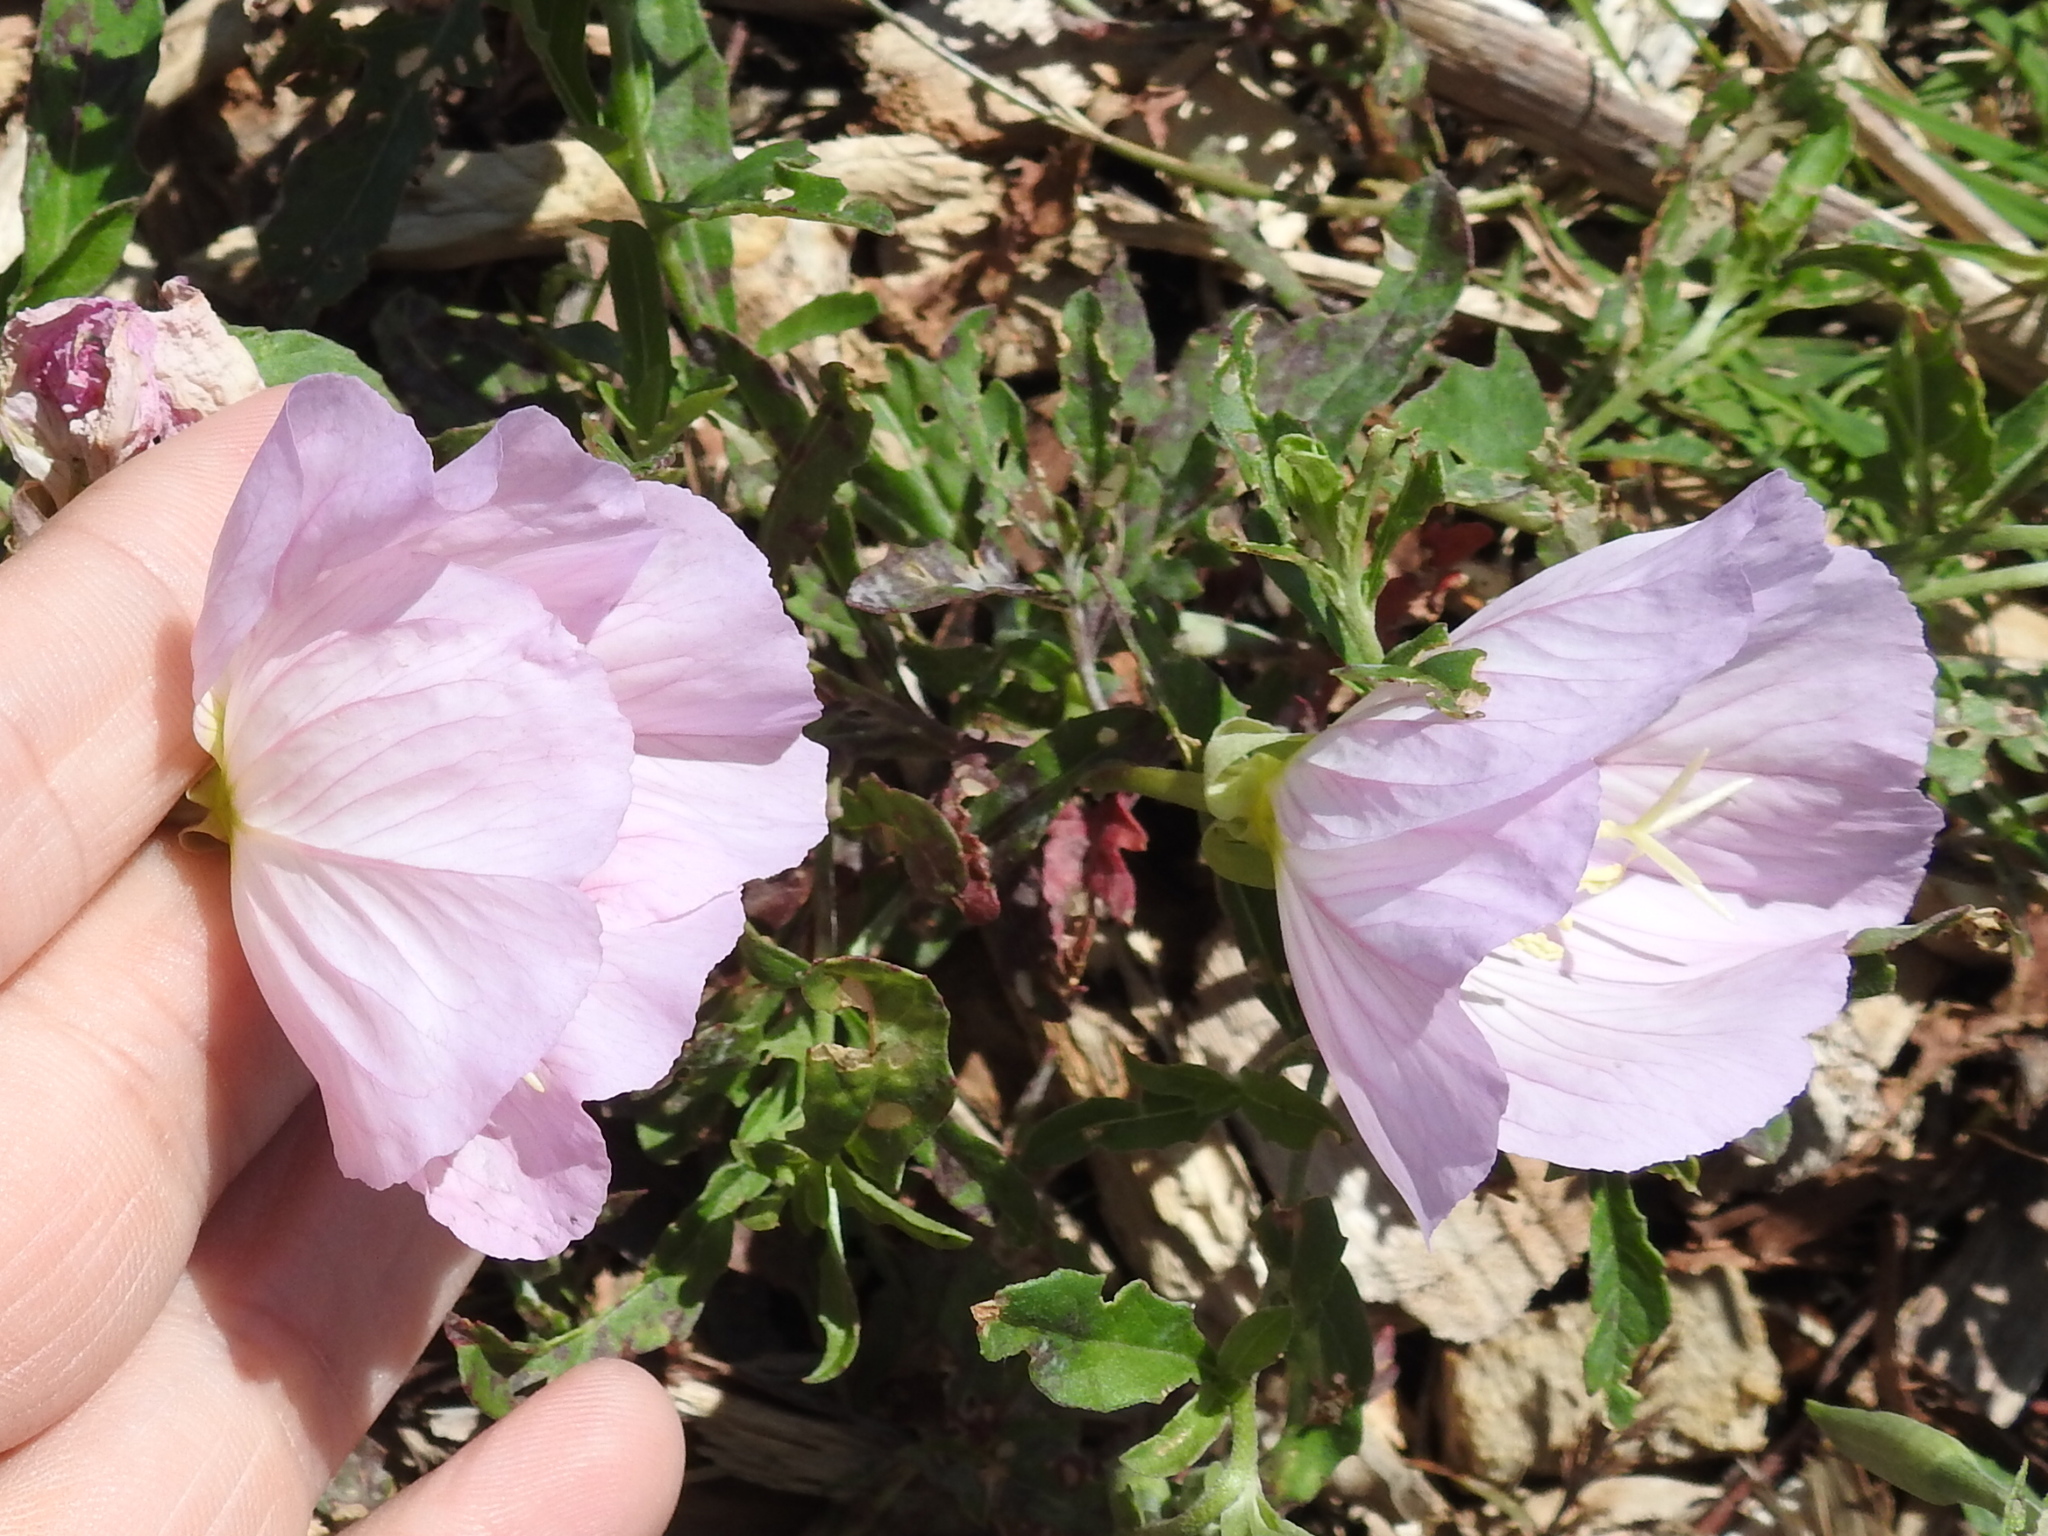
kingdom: Plantae
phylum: Tracheophyta
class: Magnoliopsida
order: Myrtales
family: Onagraceae
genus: Oenothera
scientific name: Oenothera speciosa
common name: White evening-primrose
